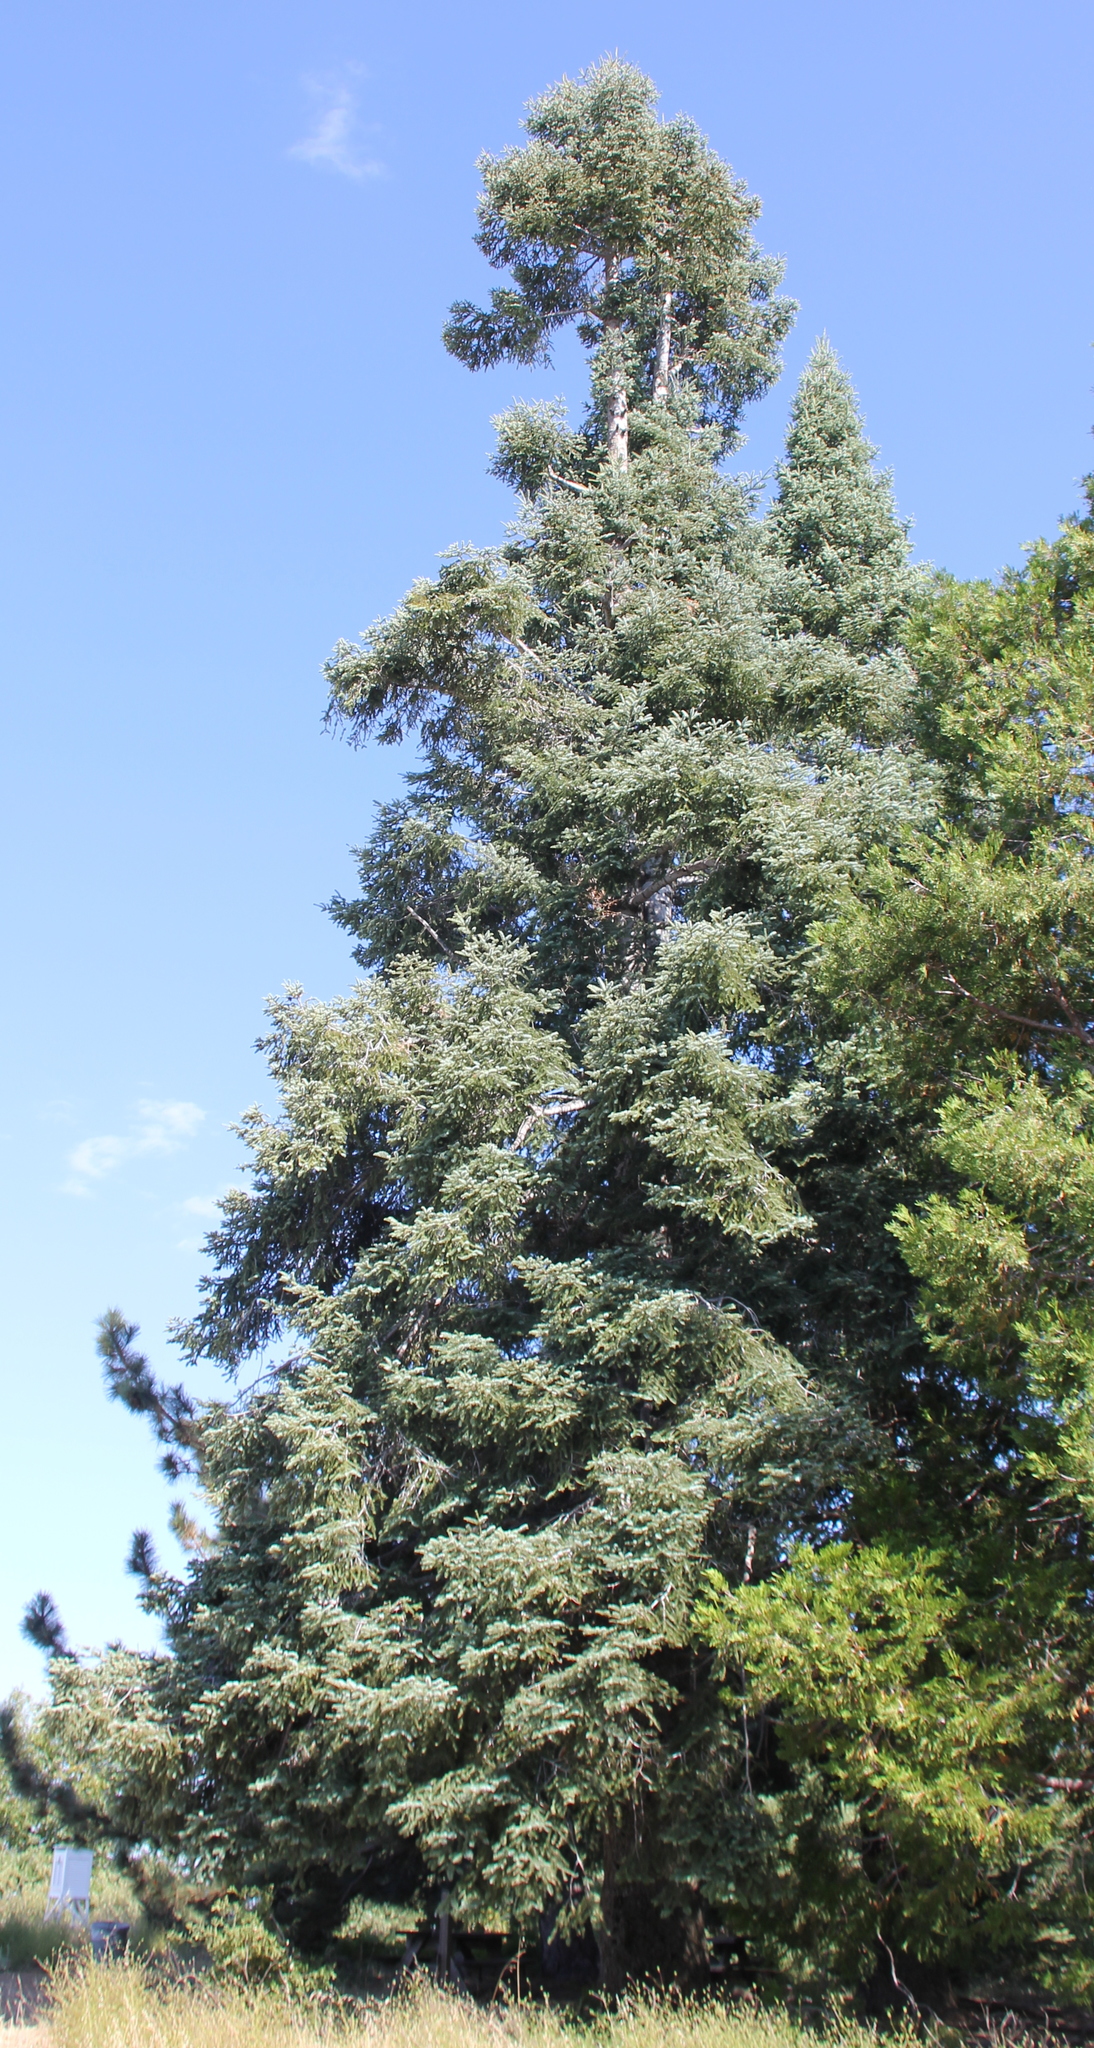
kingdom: Plantae
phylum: Tracheophyta
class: Pinopsida
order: Pinales
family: Pinaceae
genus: Abies
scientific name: Abies concolor
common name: Colorado fir
